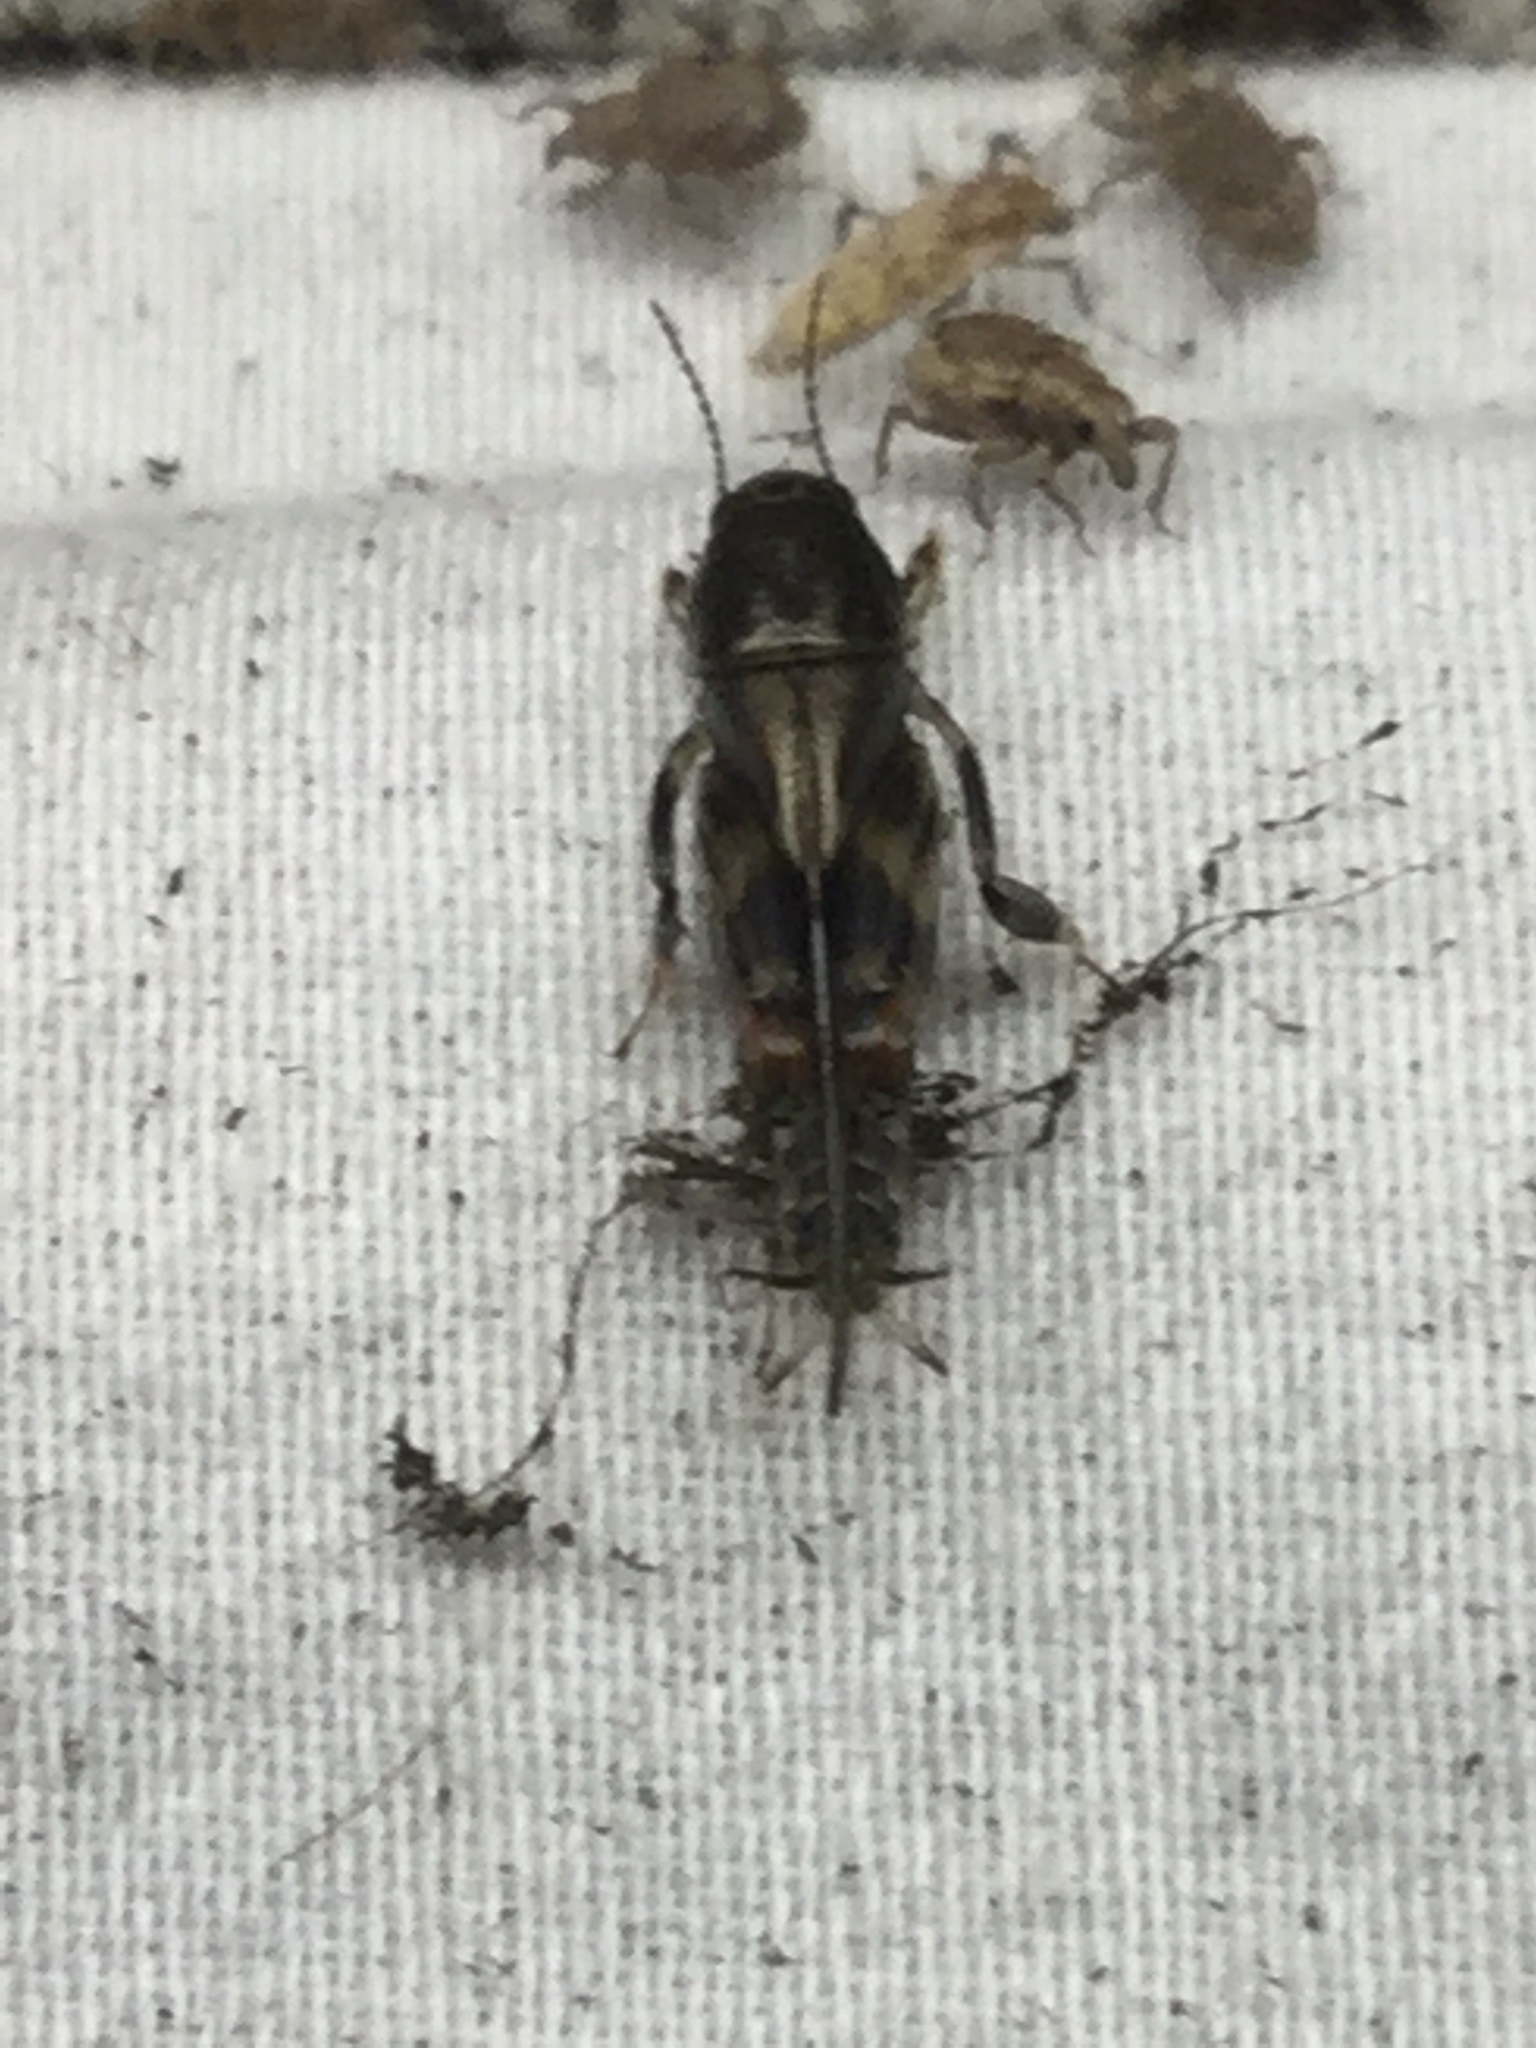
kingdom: Animalia
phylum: Arthropoda
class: Insecta
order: Orthoptera
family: Tridactylidae
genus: Neotridactylus
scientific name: Neotridactylus apicialis
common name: Larger pygmy locust
